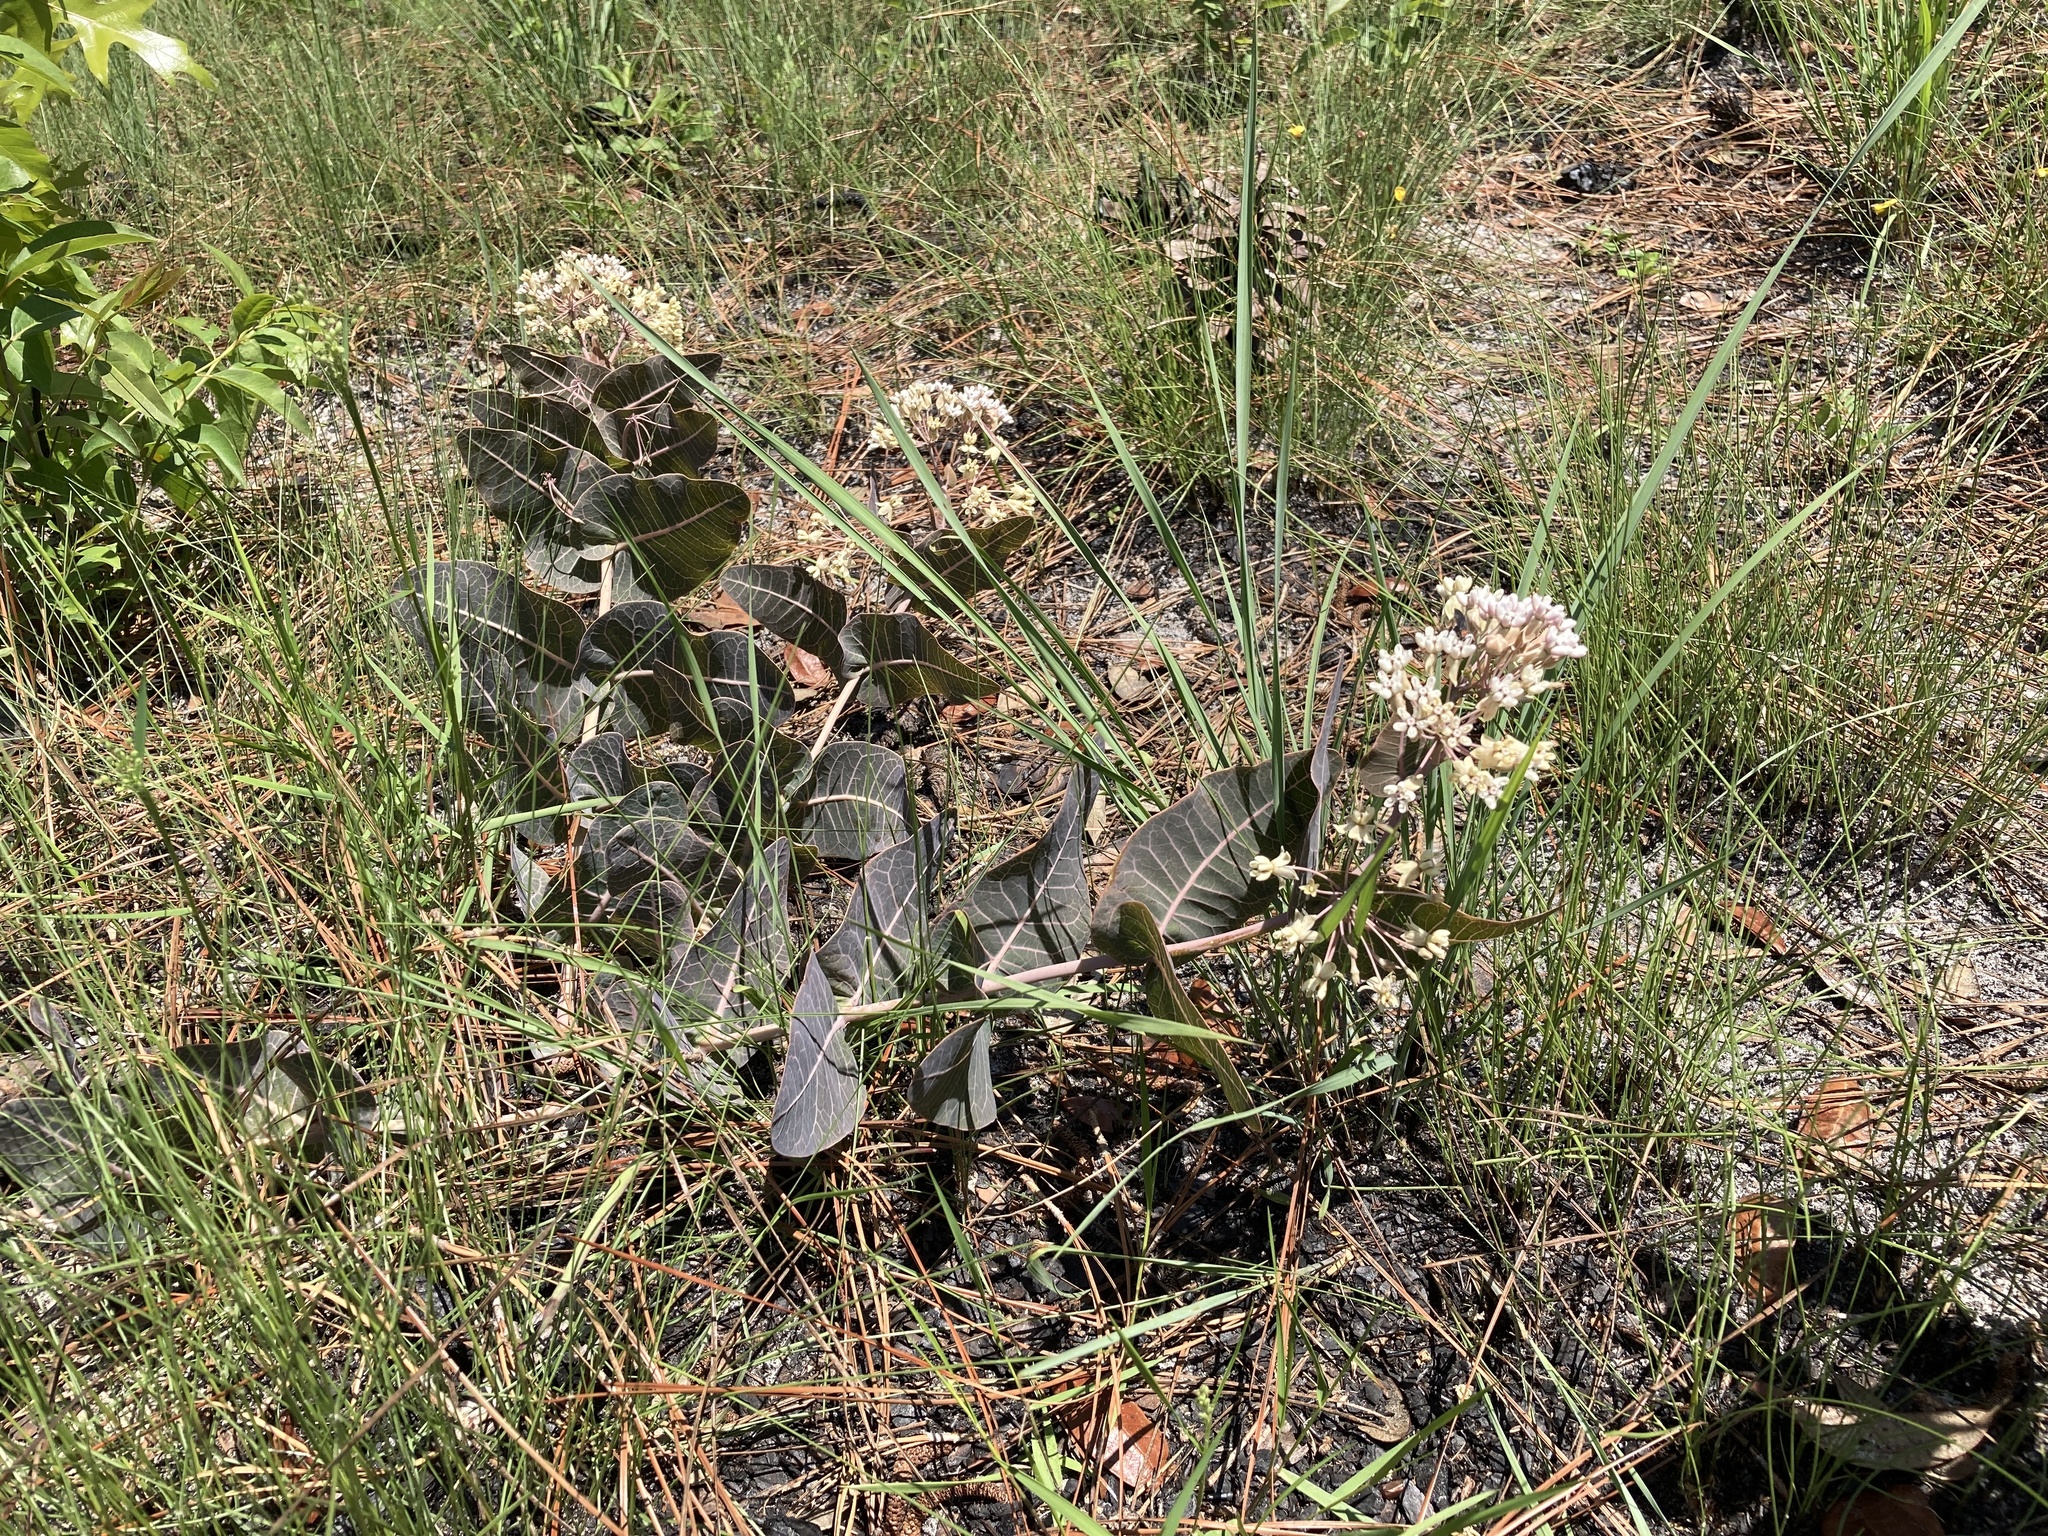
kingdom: Plantae
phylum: Tracheophyta
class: Magnoliopsida
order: Gentianales
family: Apocynaceae
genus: Asclepias
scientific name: Asclepias humistrata
